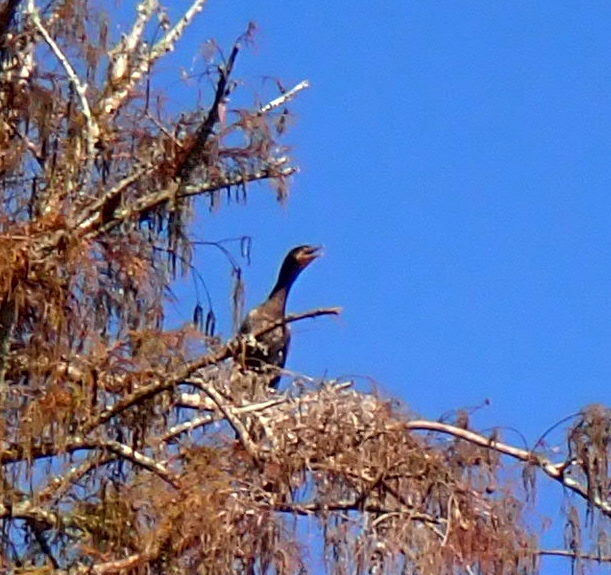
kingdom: Animalia
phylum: Chordata
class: Aves
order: Suliformes
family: Phalacrocoracidae
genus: Phalacrocorax
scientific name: Phalacrocorax auritus
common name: Double-crested cormorant
